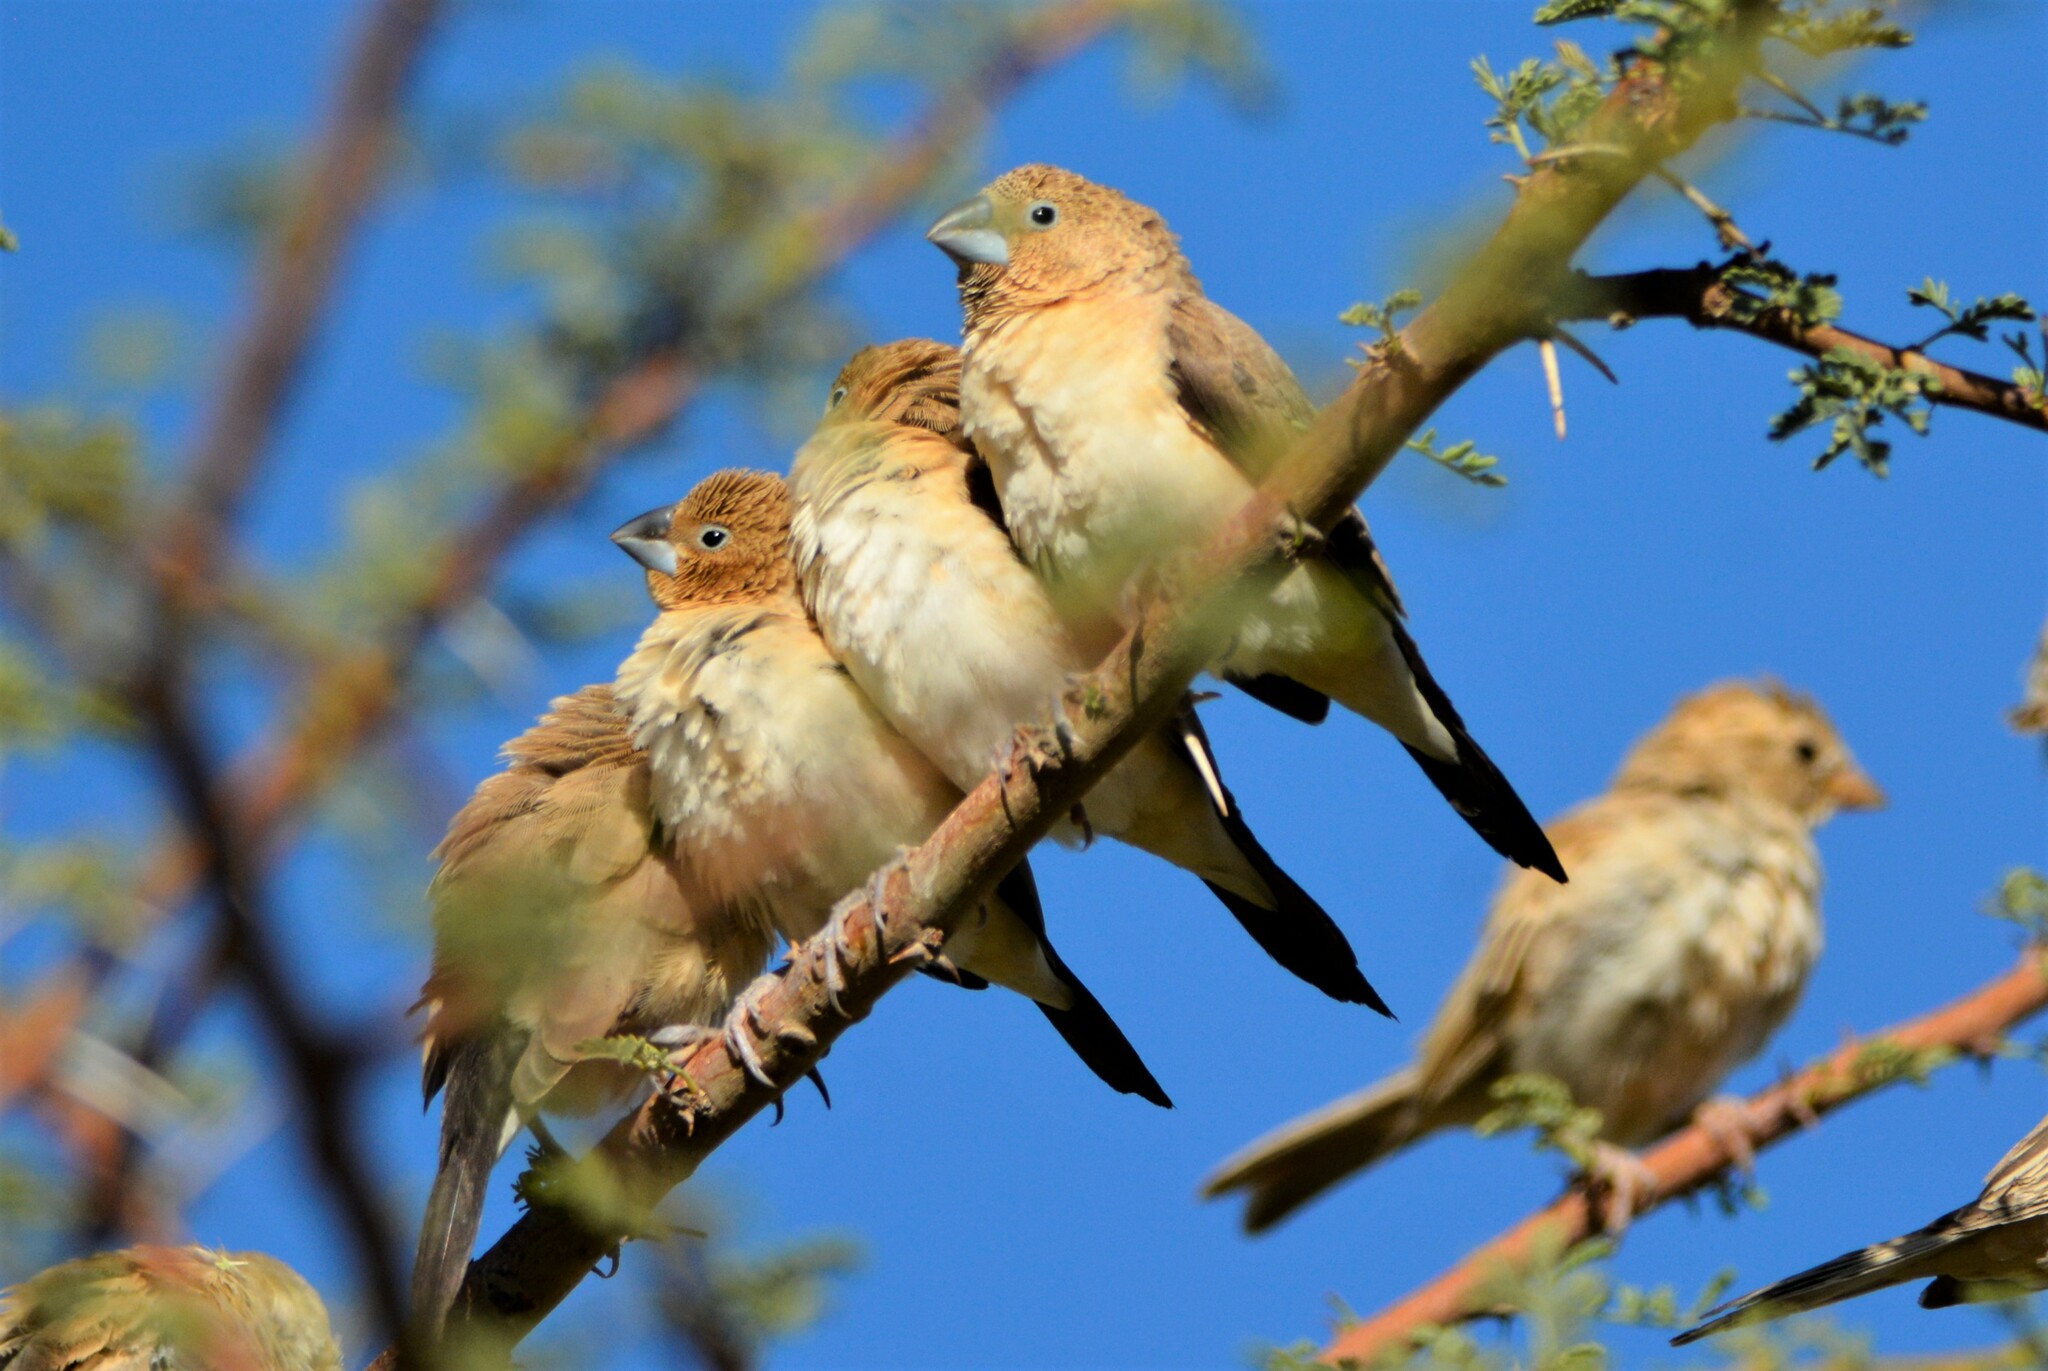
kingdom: Animalia
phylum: Chordata
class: Aves
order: Passeriformes
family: Estrildidae
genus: Euodice
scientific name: Euodice cantans
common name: African silverbill
